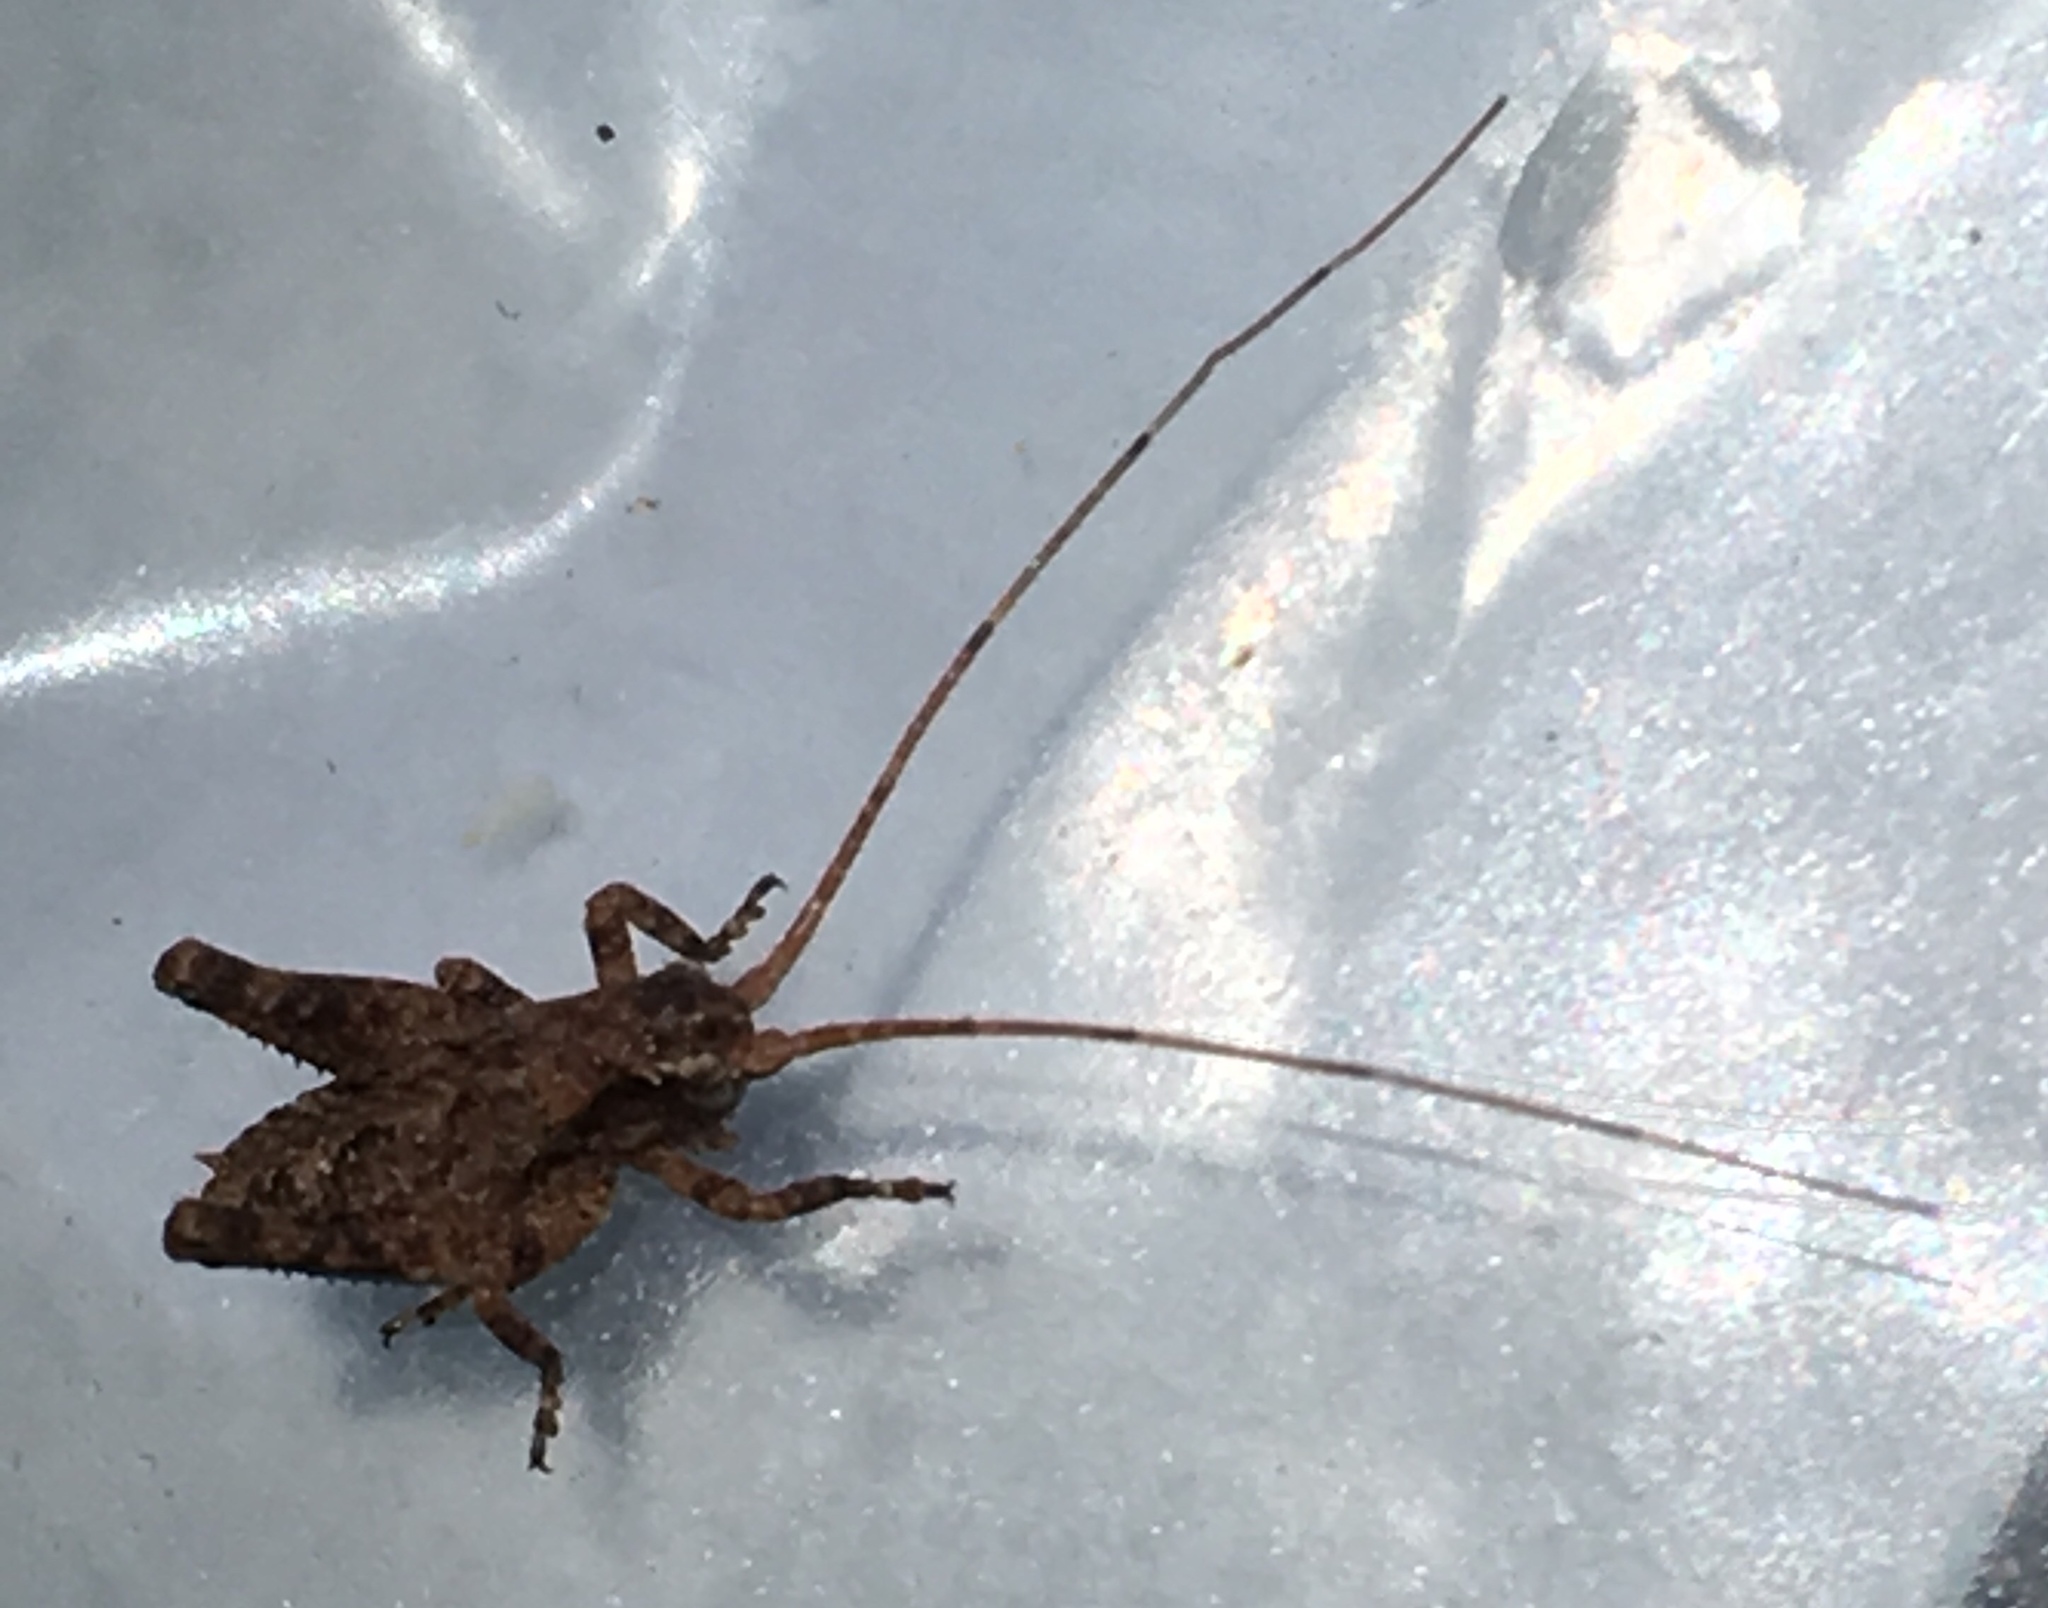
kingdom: Animalia
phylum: Arthropoda
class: Insecta
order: Orthoptera
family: Tettigoniidae
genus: Aglaothorax
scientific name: Aglaothorax morsei
